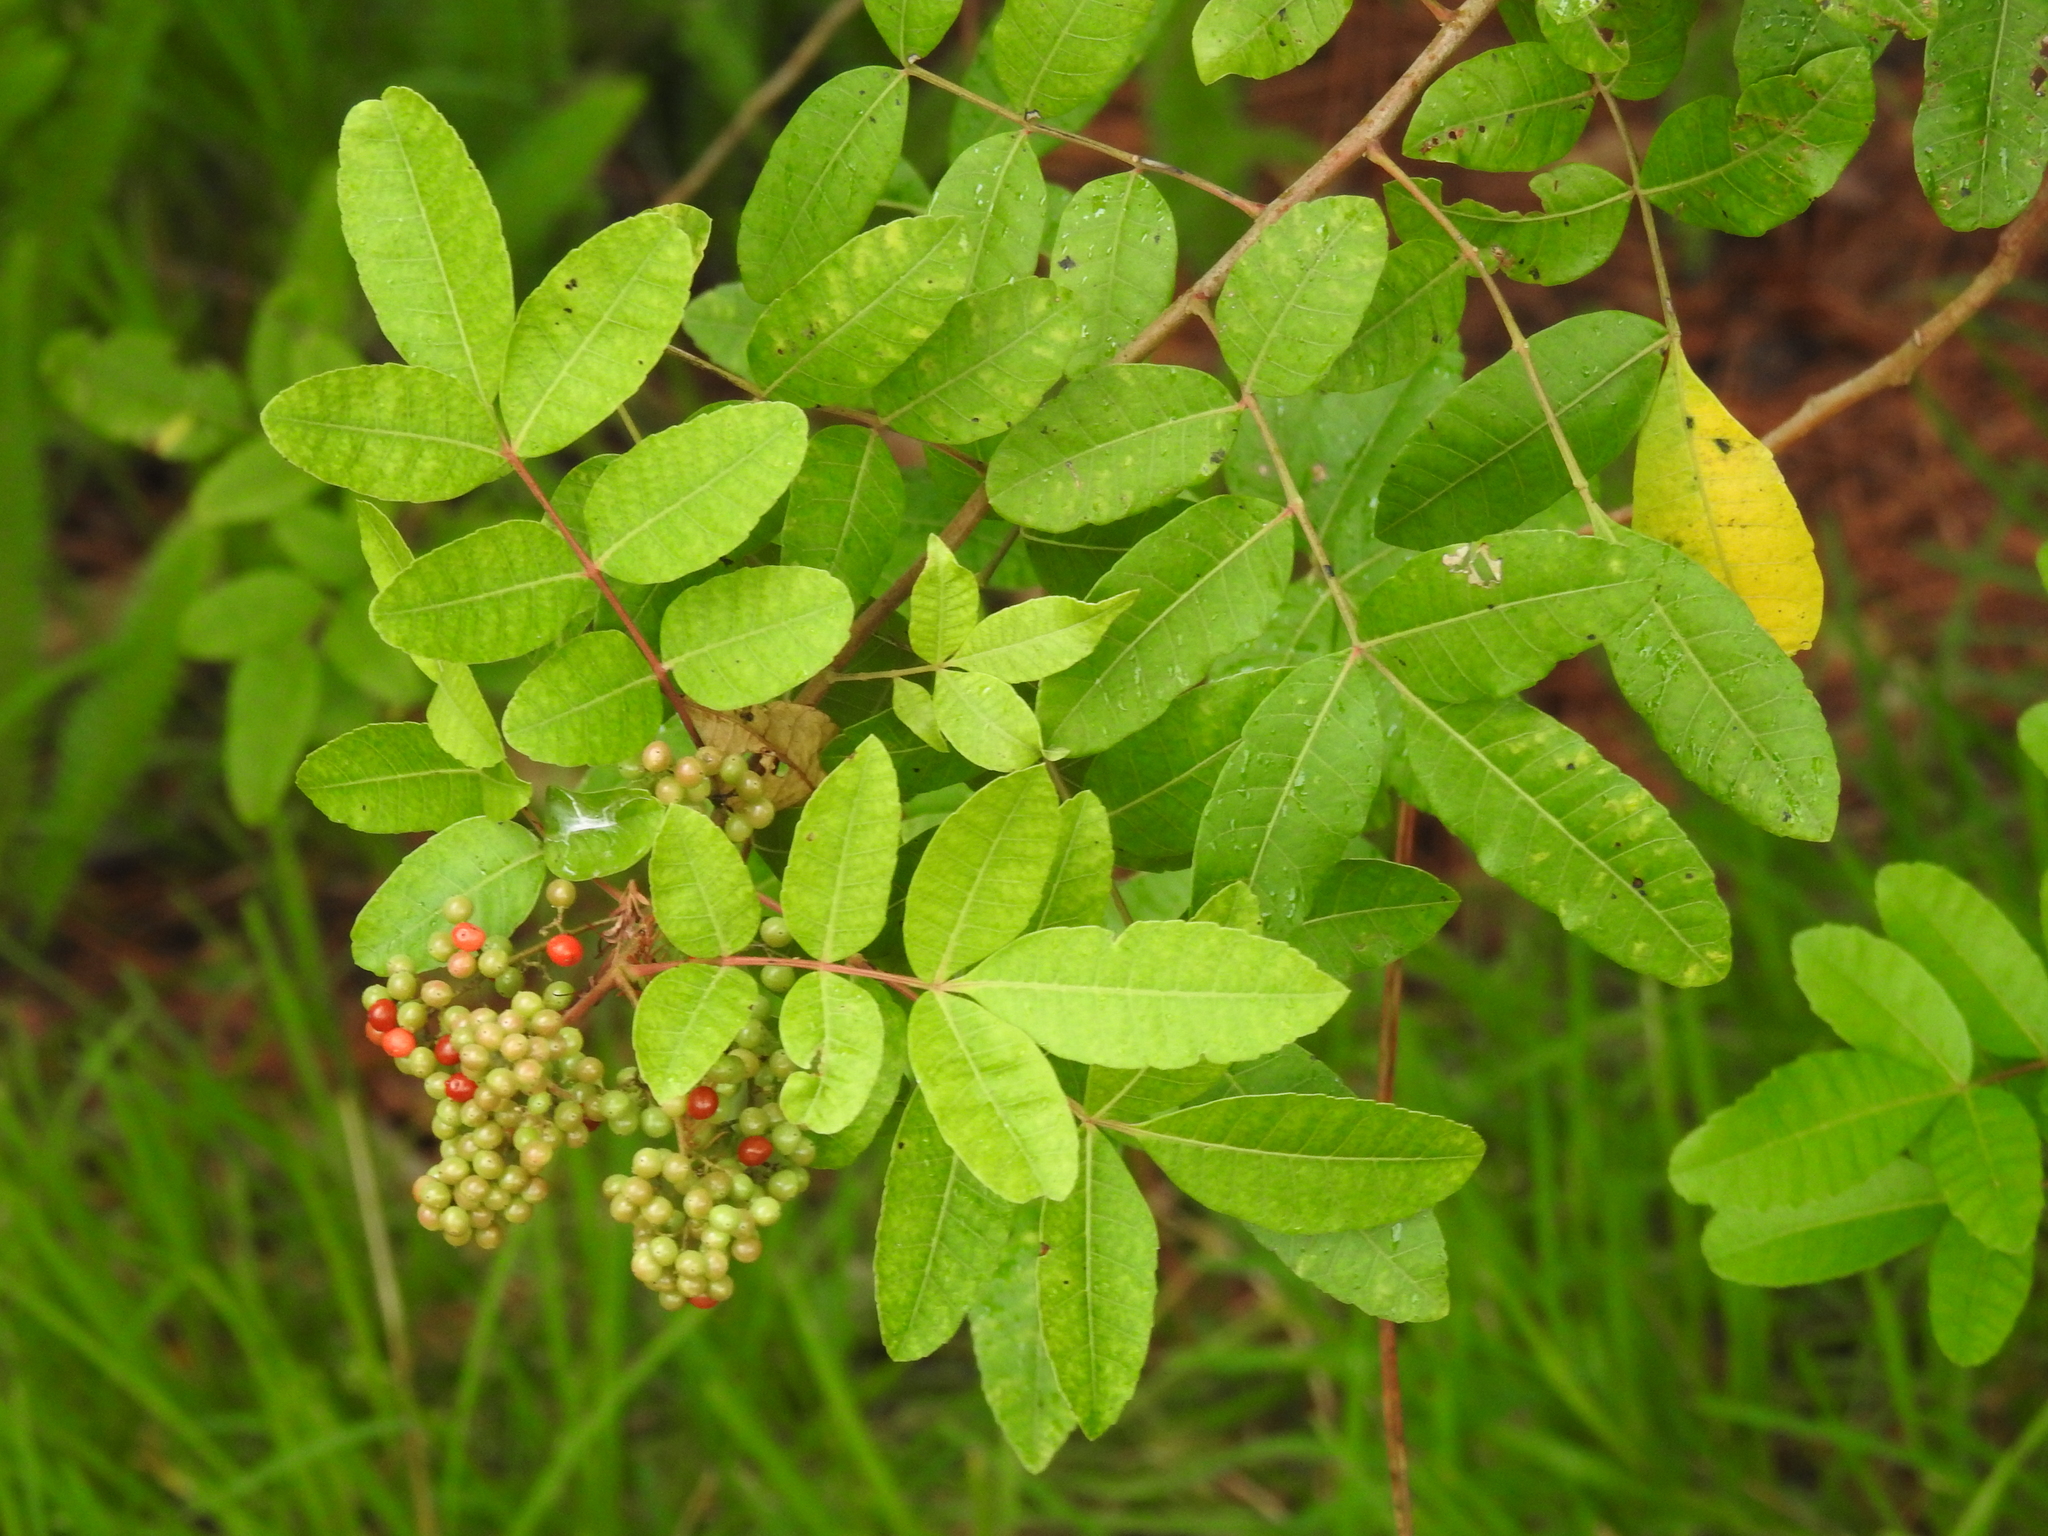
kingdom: Plantae
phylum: Tracheophyta
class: Magnoliopsida
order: Sapindales
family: Anacardiaceae
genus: Schinus
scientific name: Schinus terebinthifolia
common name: Brazilian peppertree
